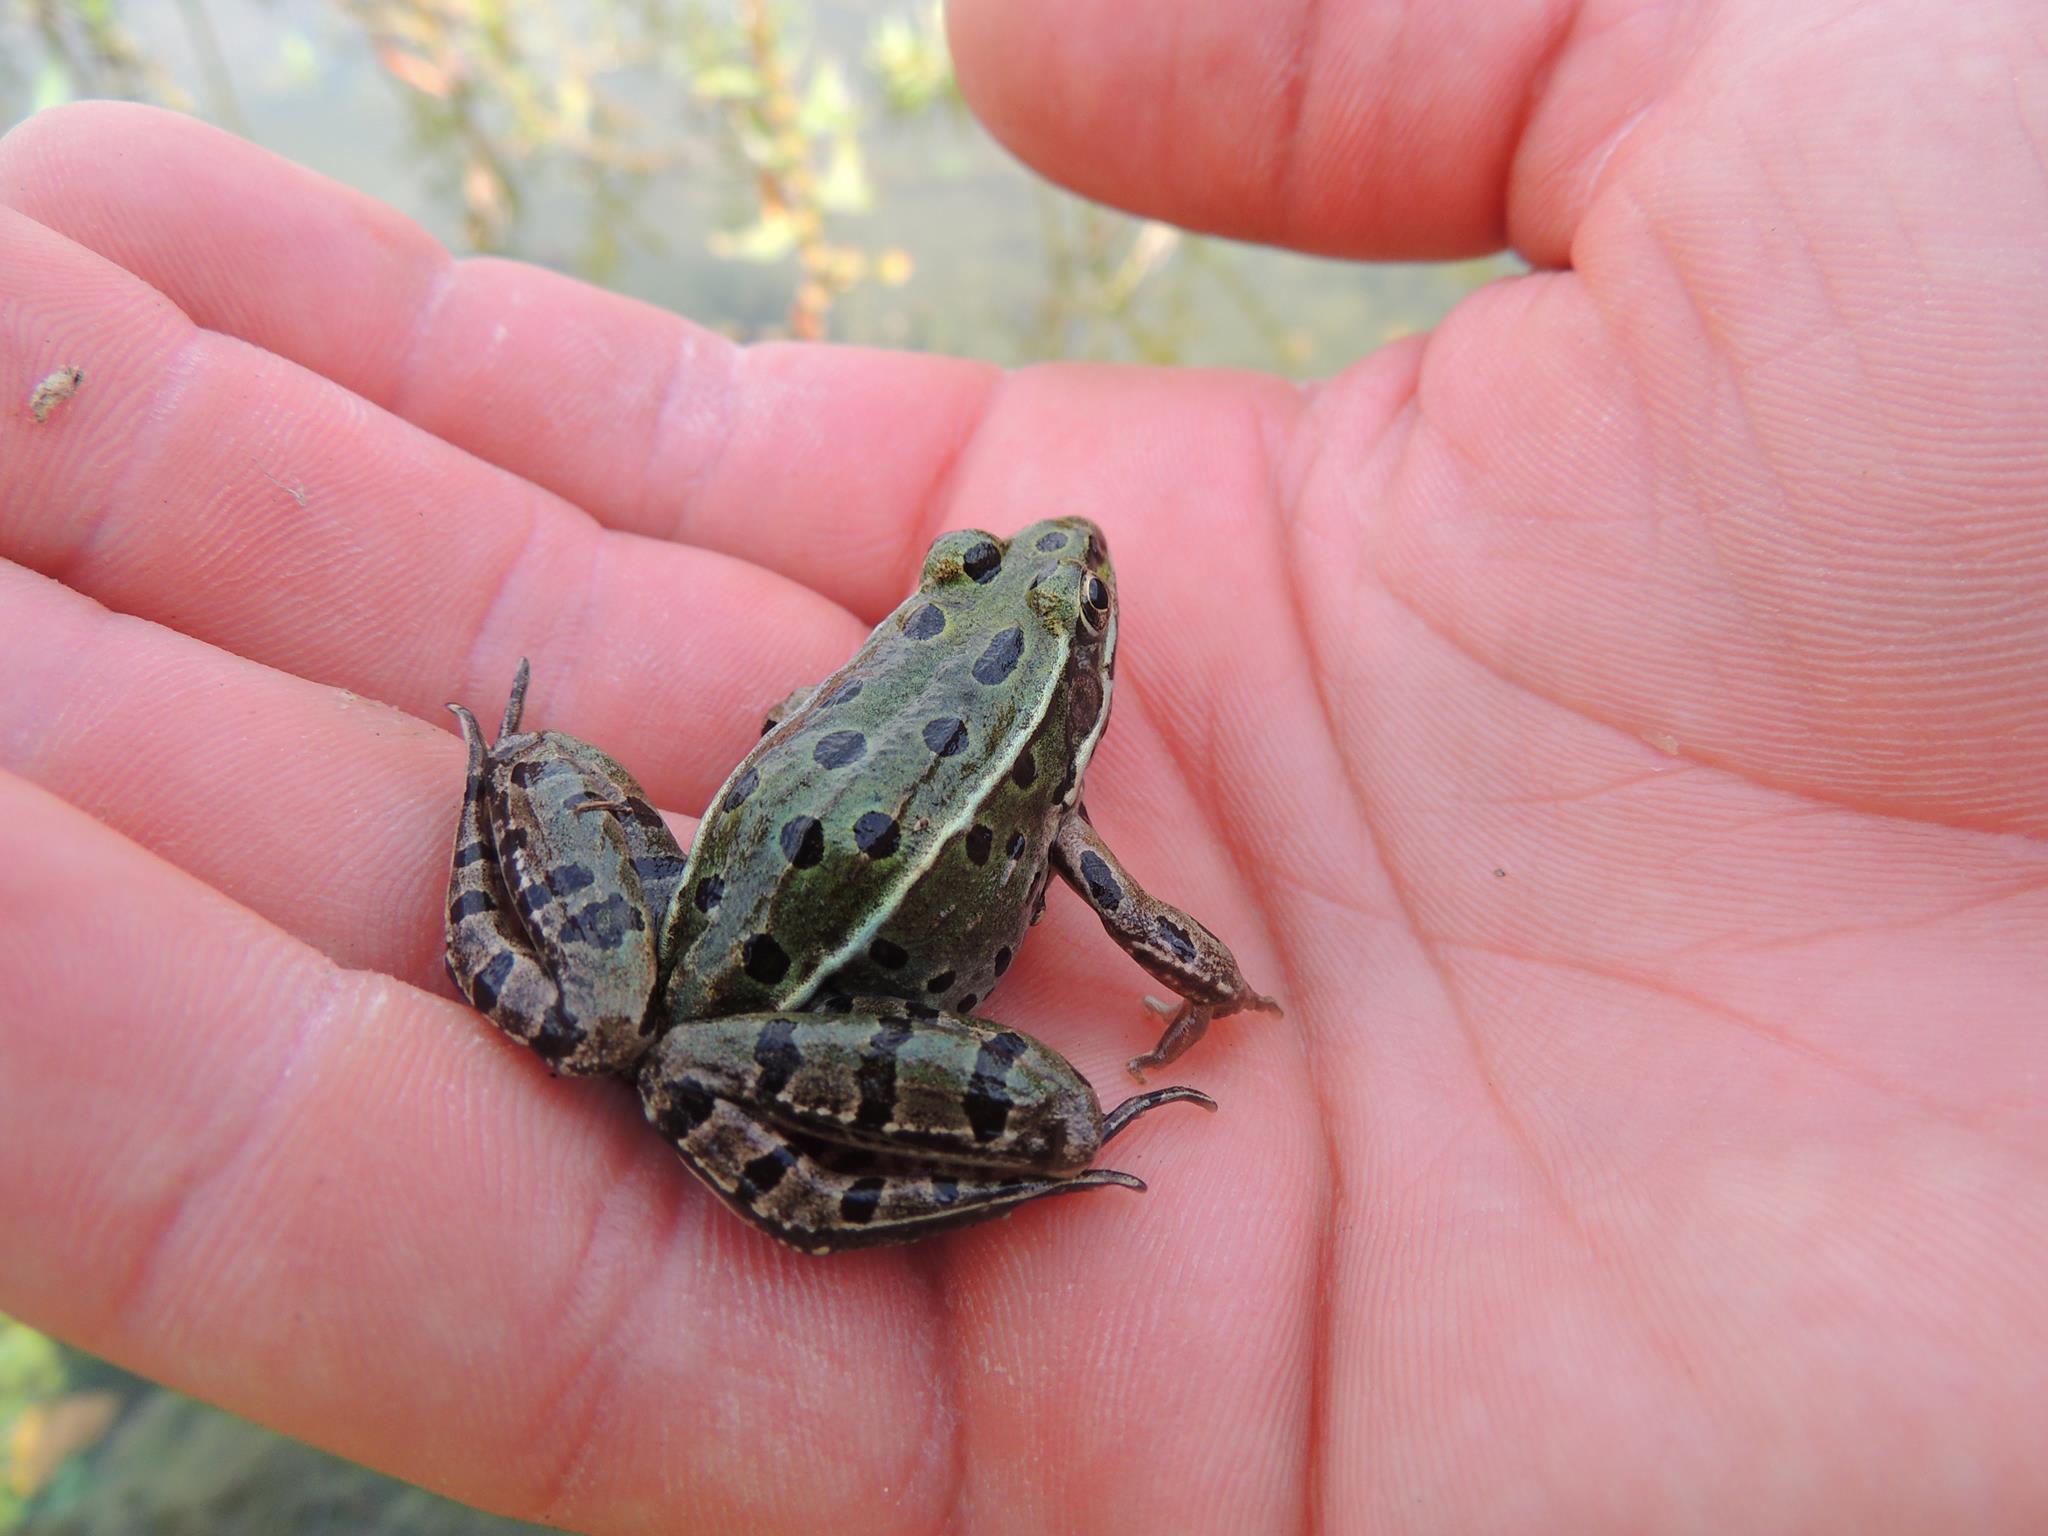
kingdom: Animalia
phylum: Chordata
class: Amphibia
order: Anura
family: Ranidae
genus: Lithobates
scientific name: Lithobates pipiens
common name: Northern leopard frog
